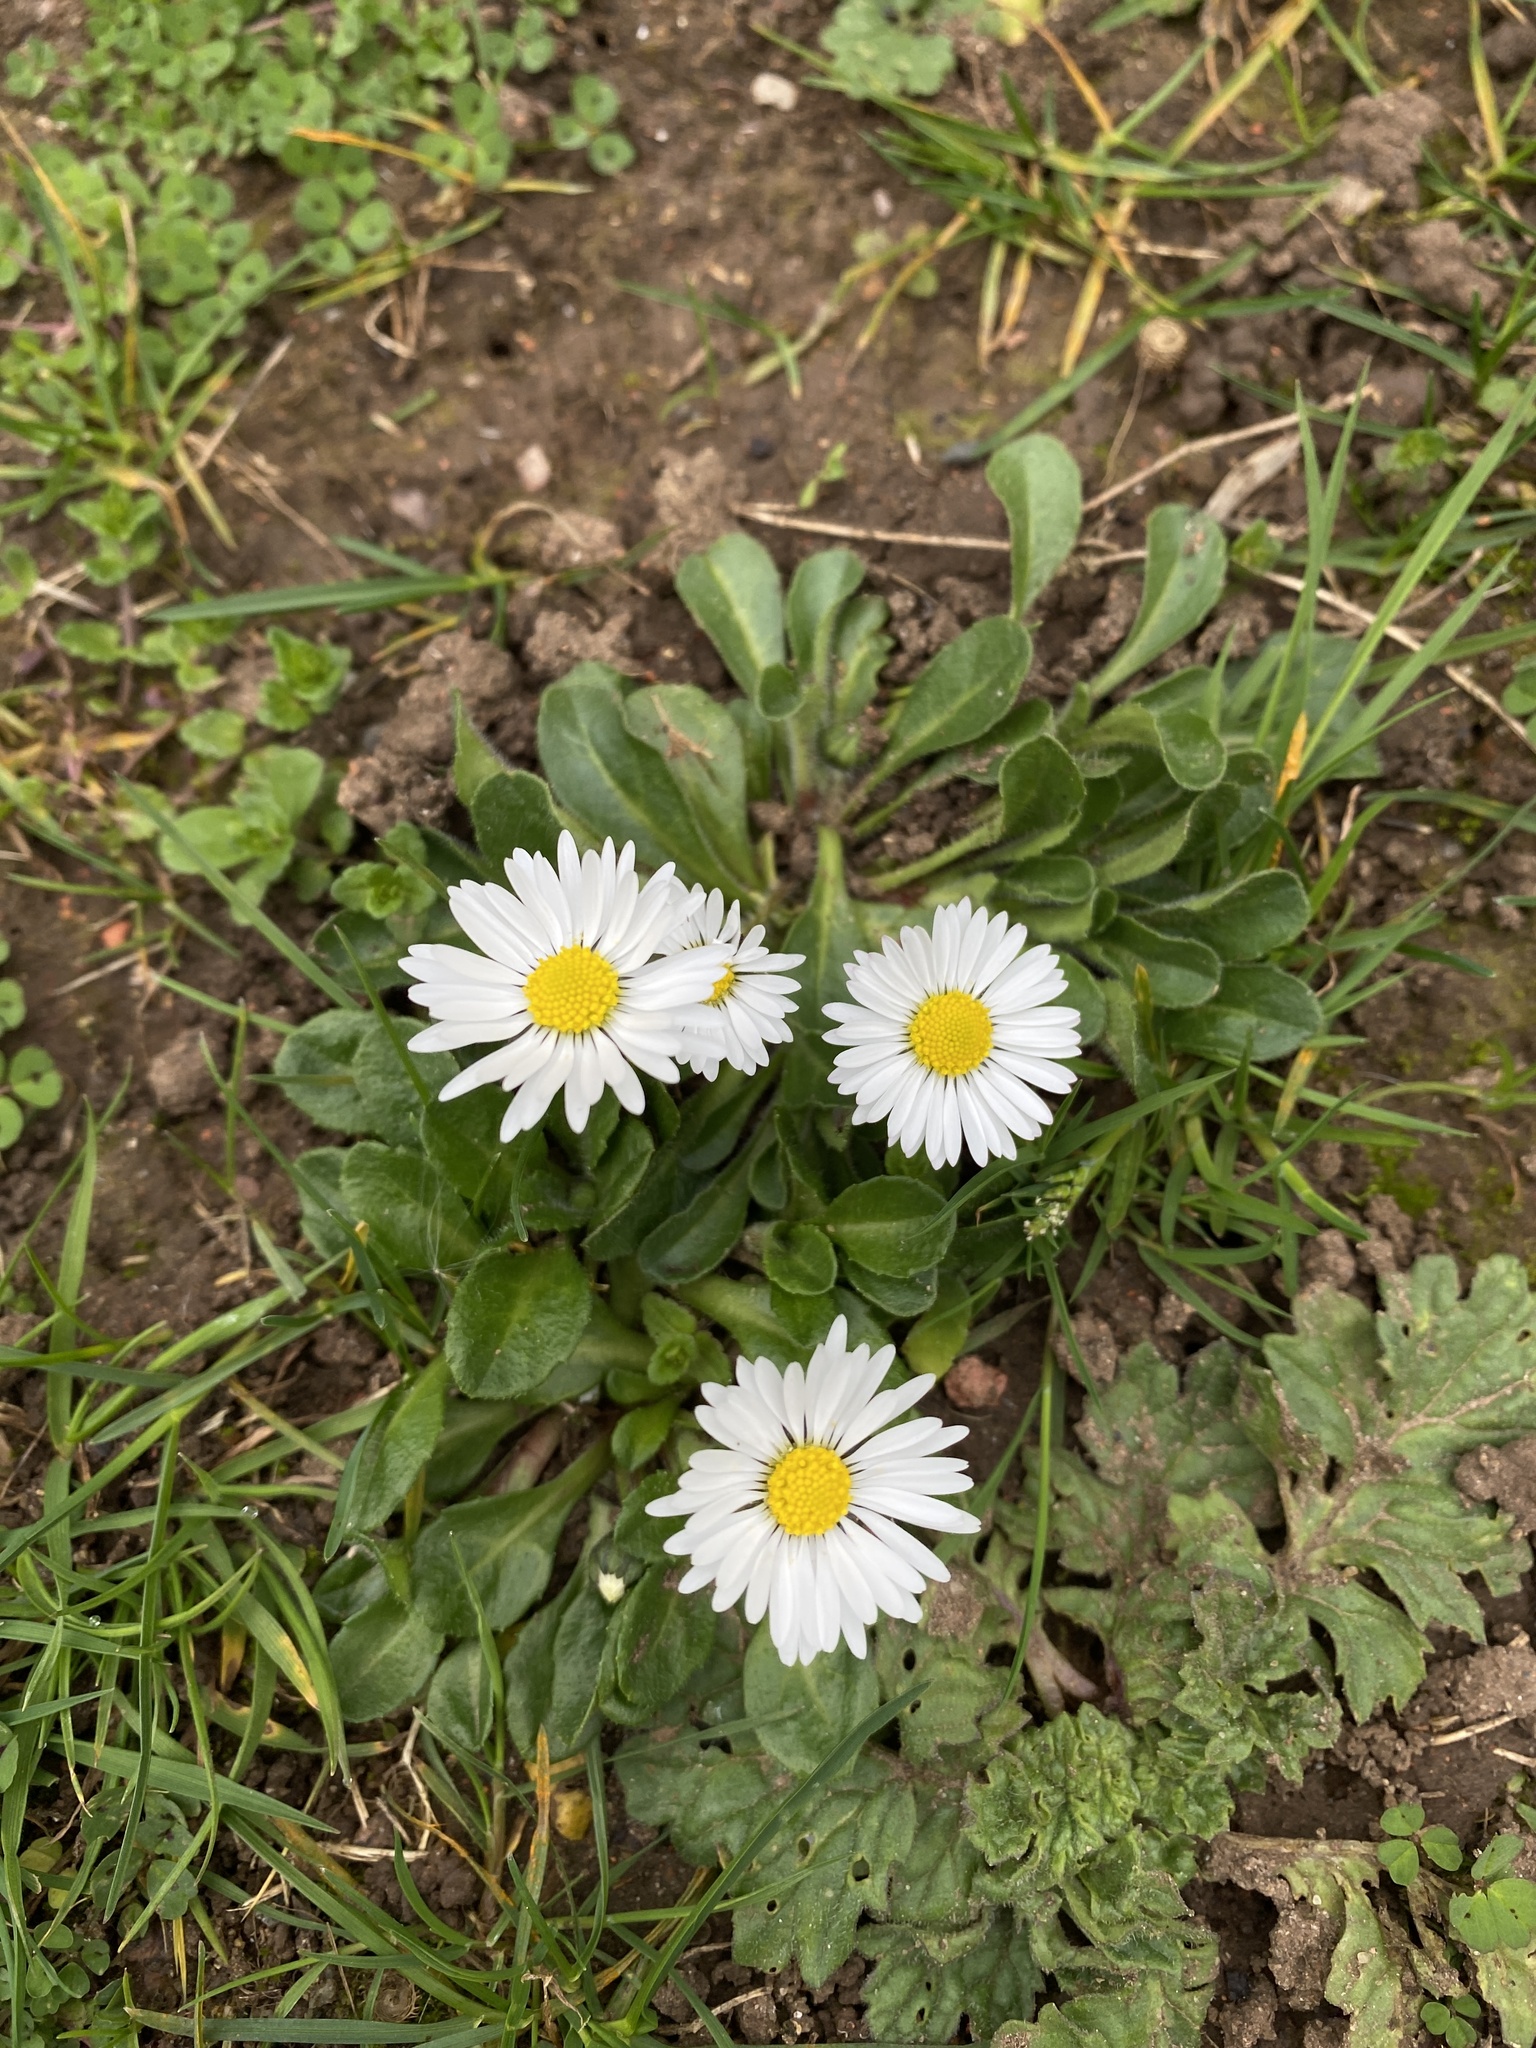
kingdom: Plantae
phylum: Tracheophyta
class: Magnoliopsida
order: Asterales
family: Asteraceae
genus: Bellis
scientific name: Bellis perennis
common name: Lawndaisy
